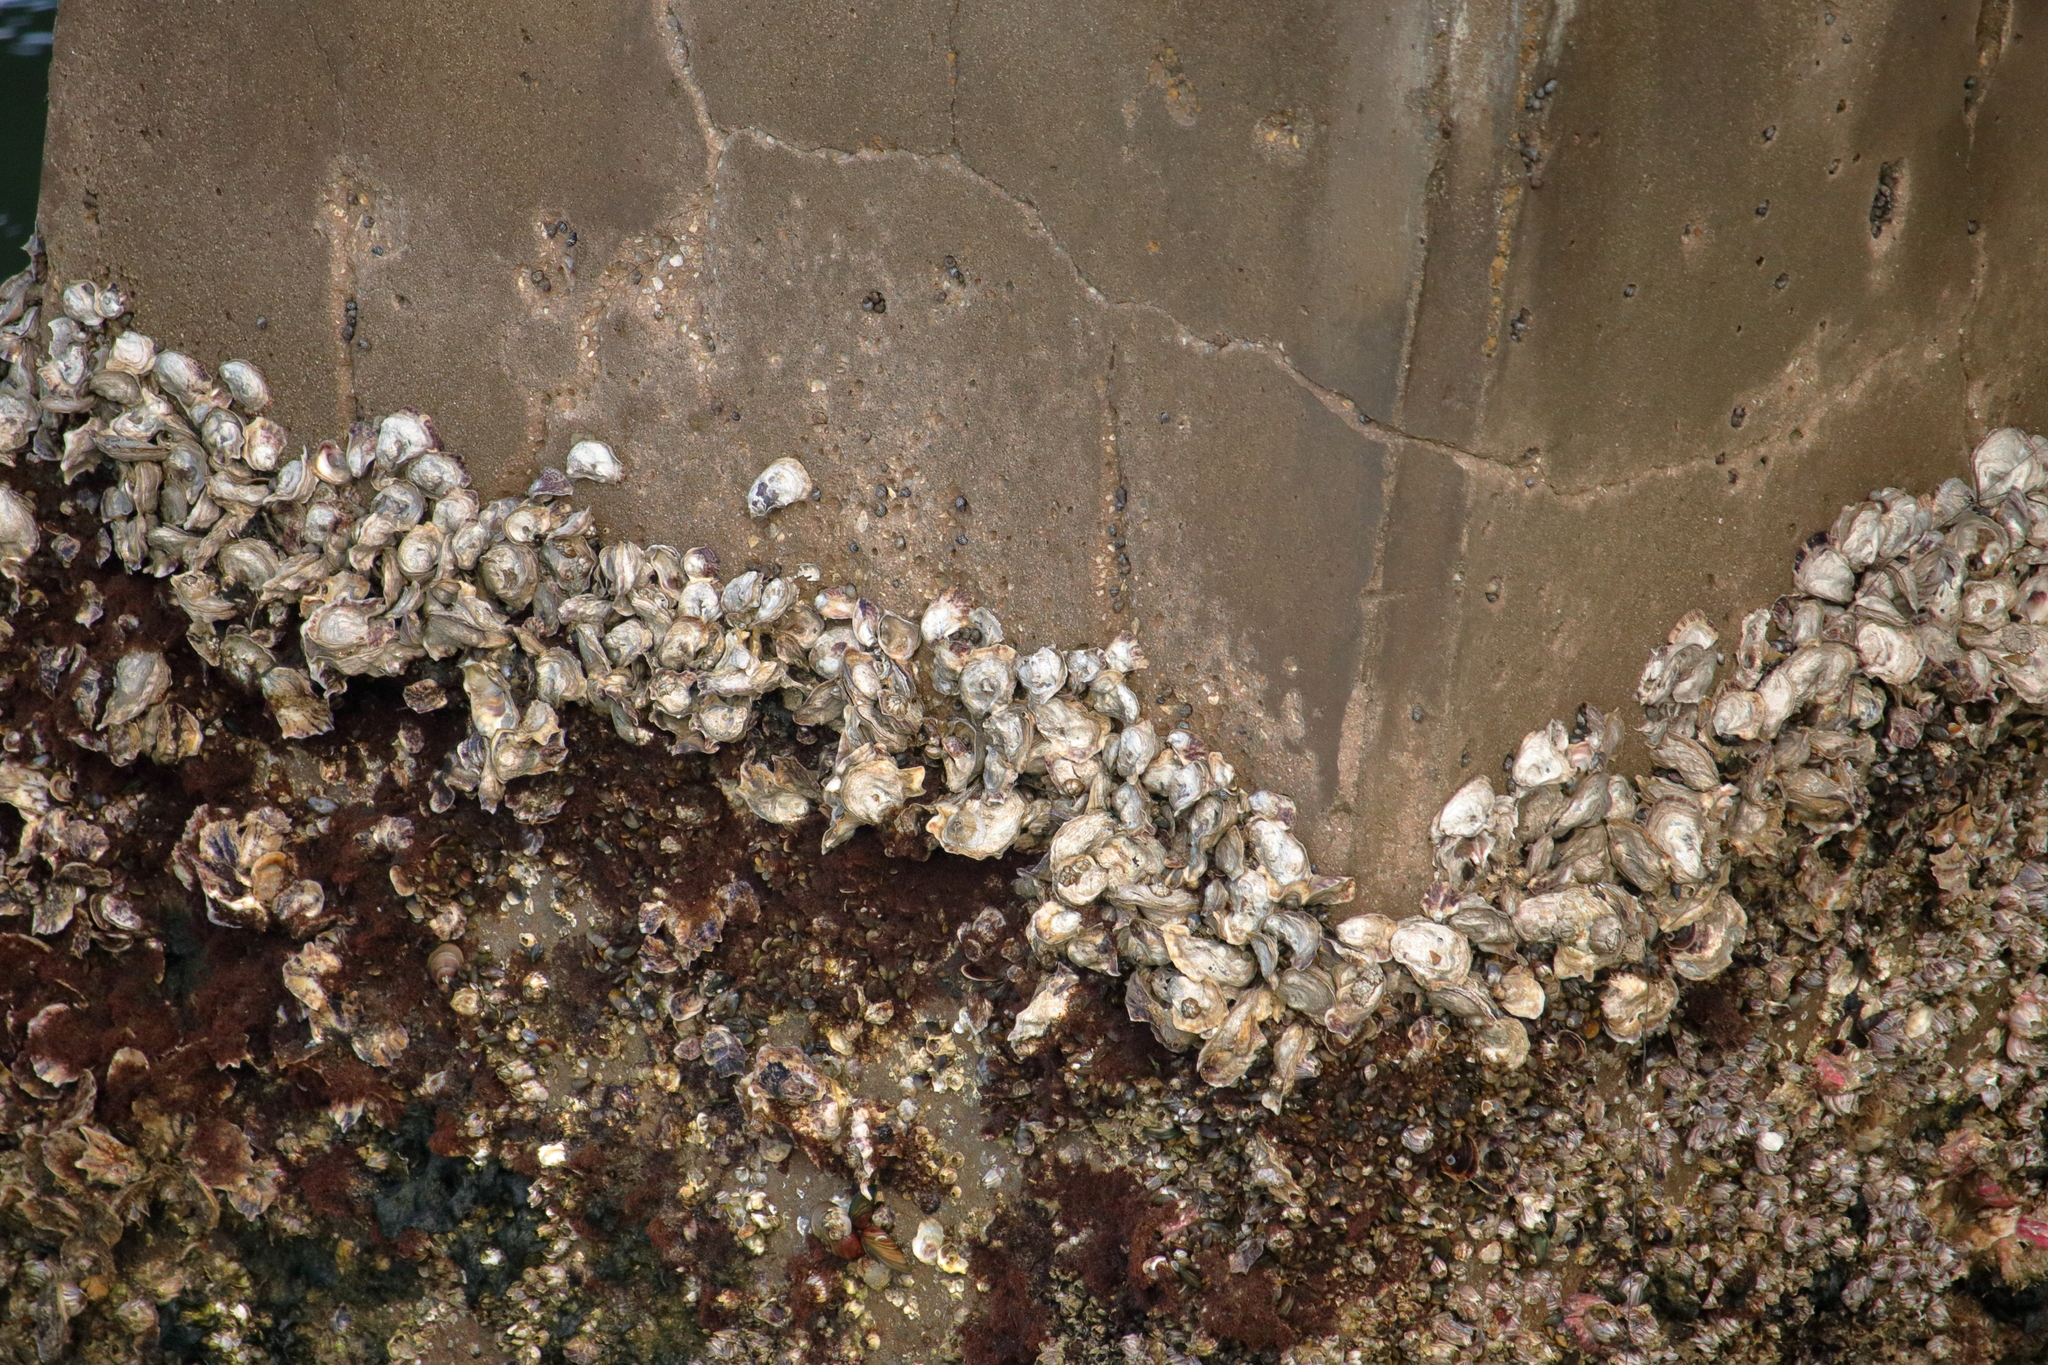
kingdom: Animalia
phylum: Mollusca
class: Bivalvia
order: Ostreida
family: Ostreidae
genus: Crassostrea
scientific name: Crassostrea virginica
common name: American oyster
